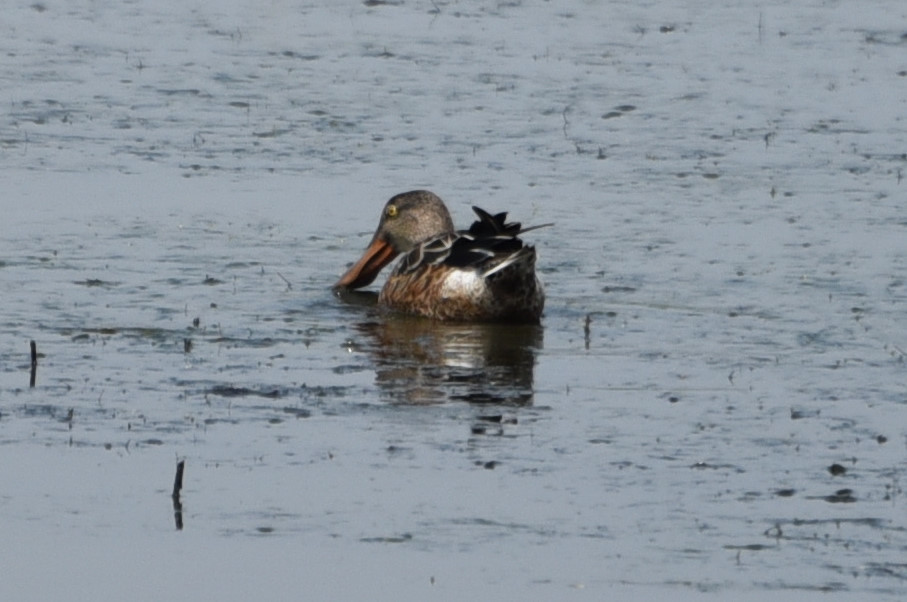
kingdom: Animalia
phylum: Chordata
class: Aves
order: Anseriformes
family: Anatidae
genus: Spatula
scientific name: Spatula clypeata
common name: Northern shoveler
